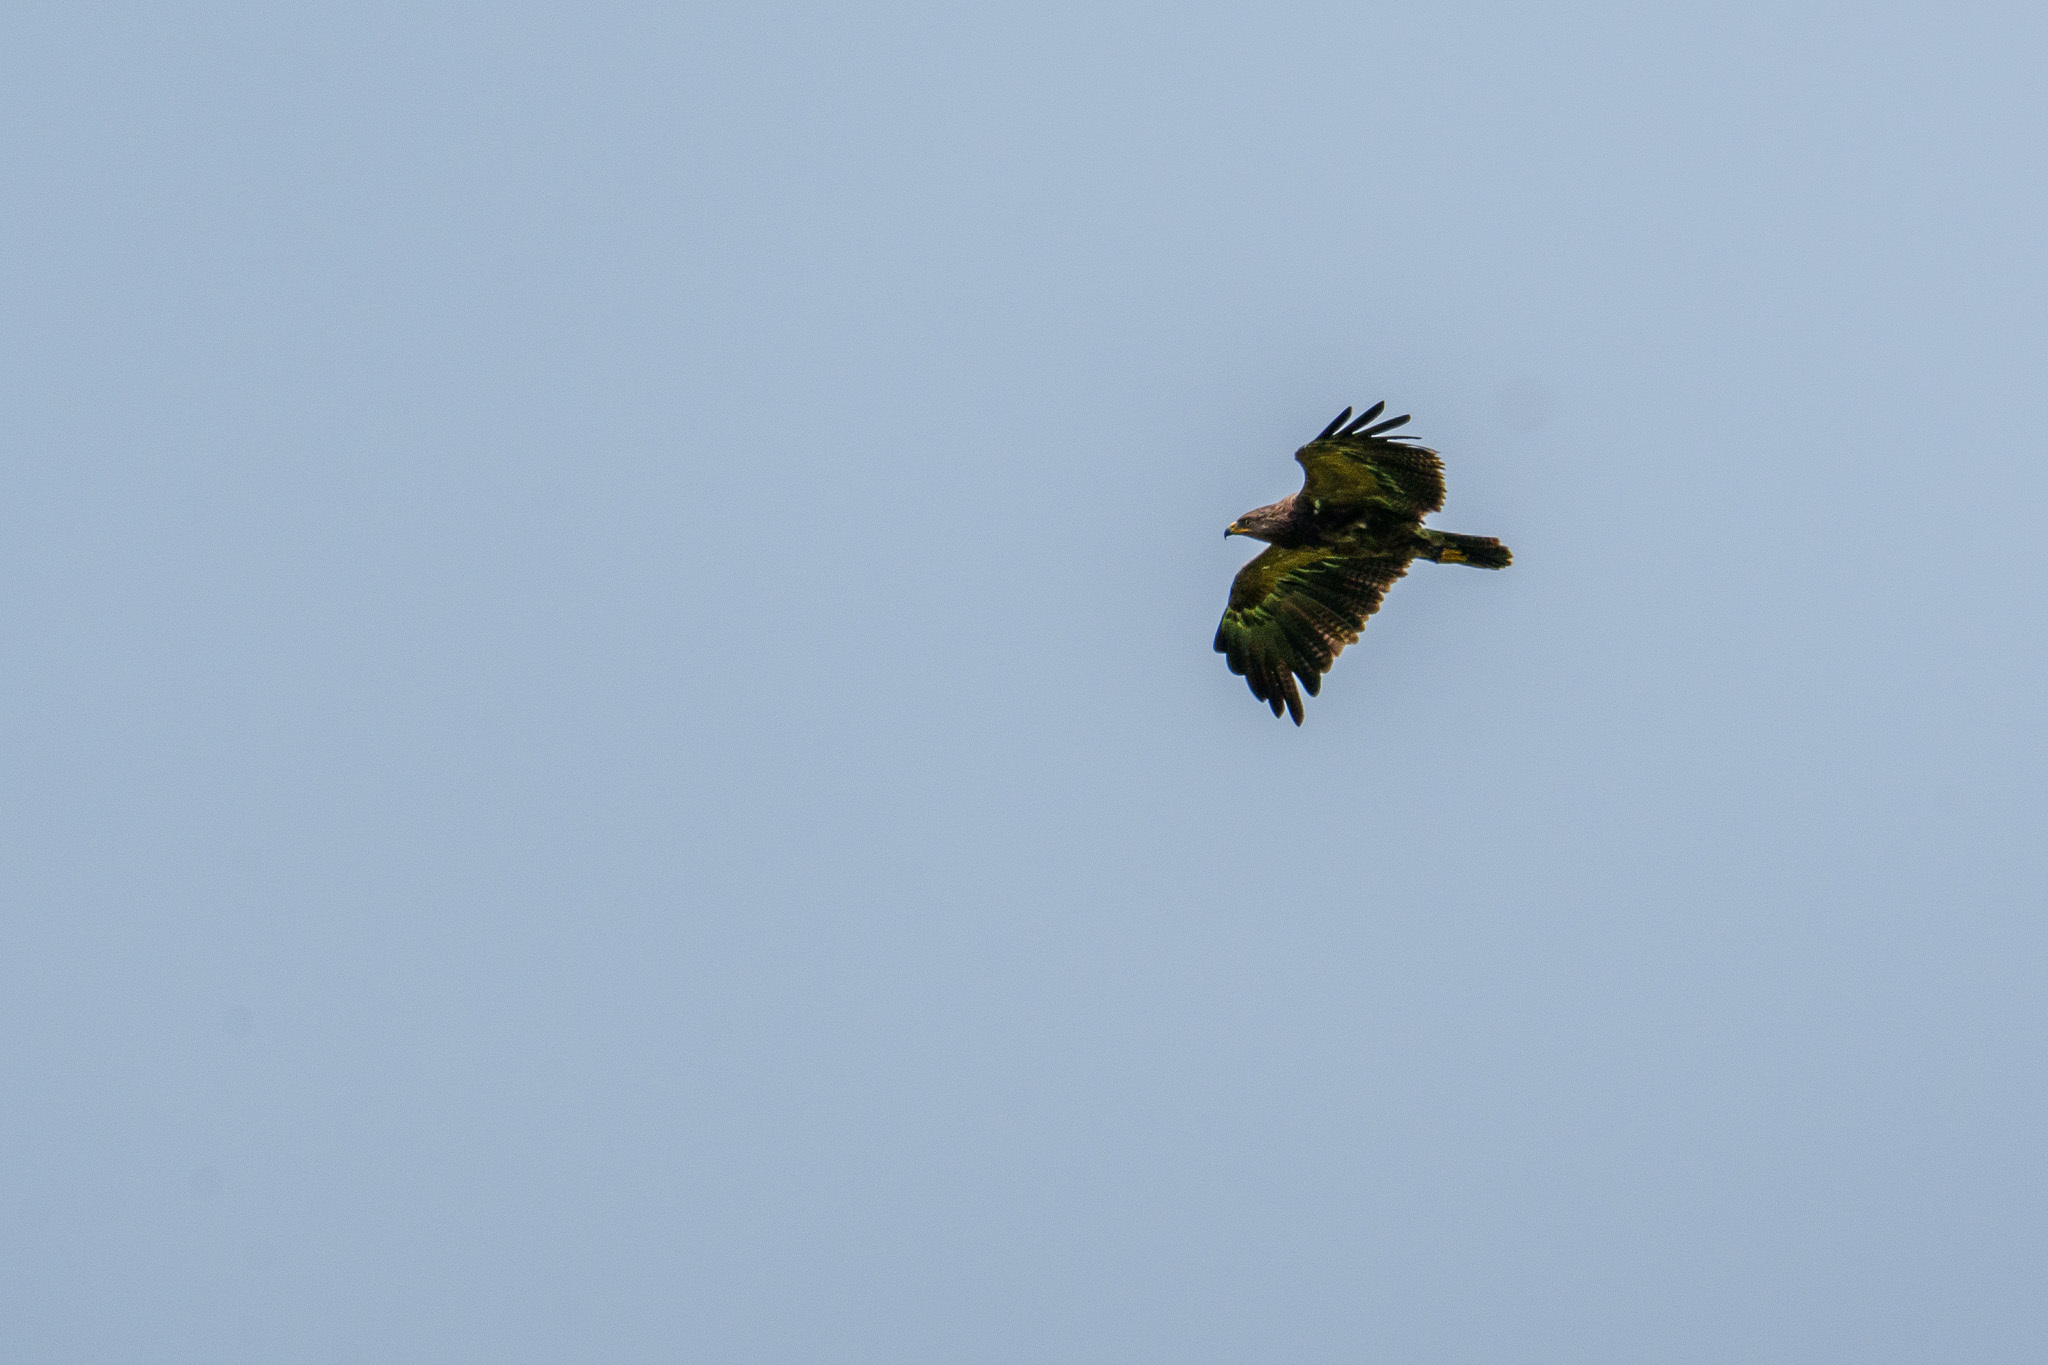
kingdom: Animalia
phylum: Chordata
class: Aves
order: Accipitriformes
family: Accipitridae
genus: Aquila
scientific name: Aquila pomarina
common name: Lesser spotted eagle
